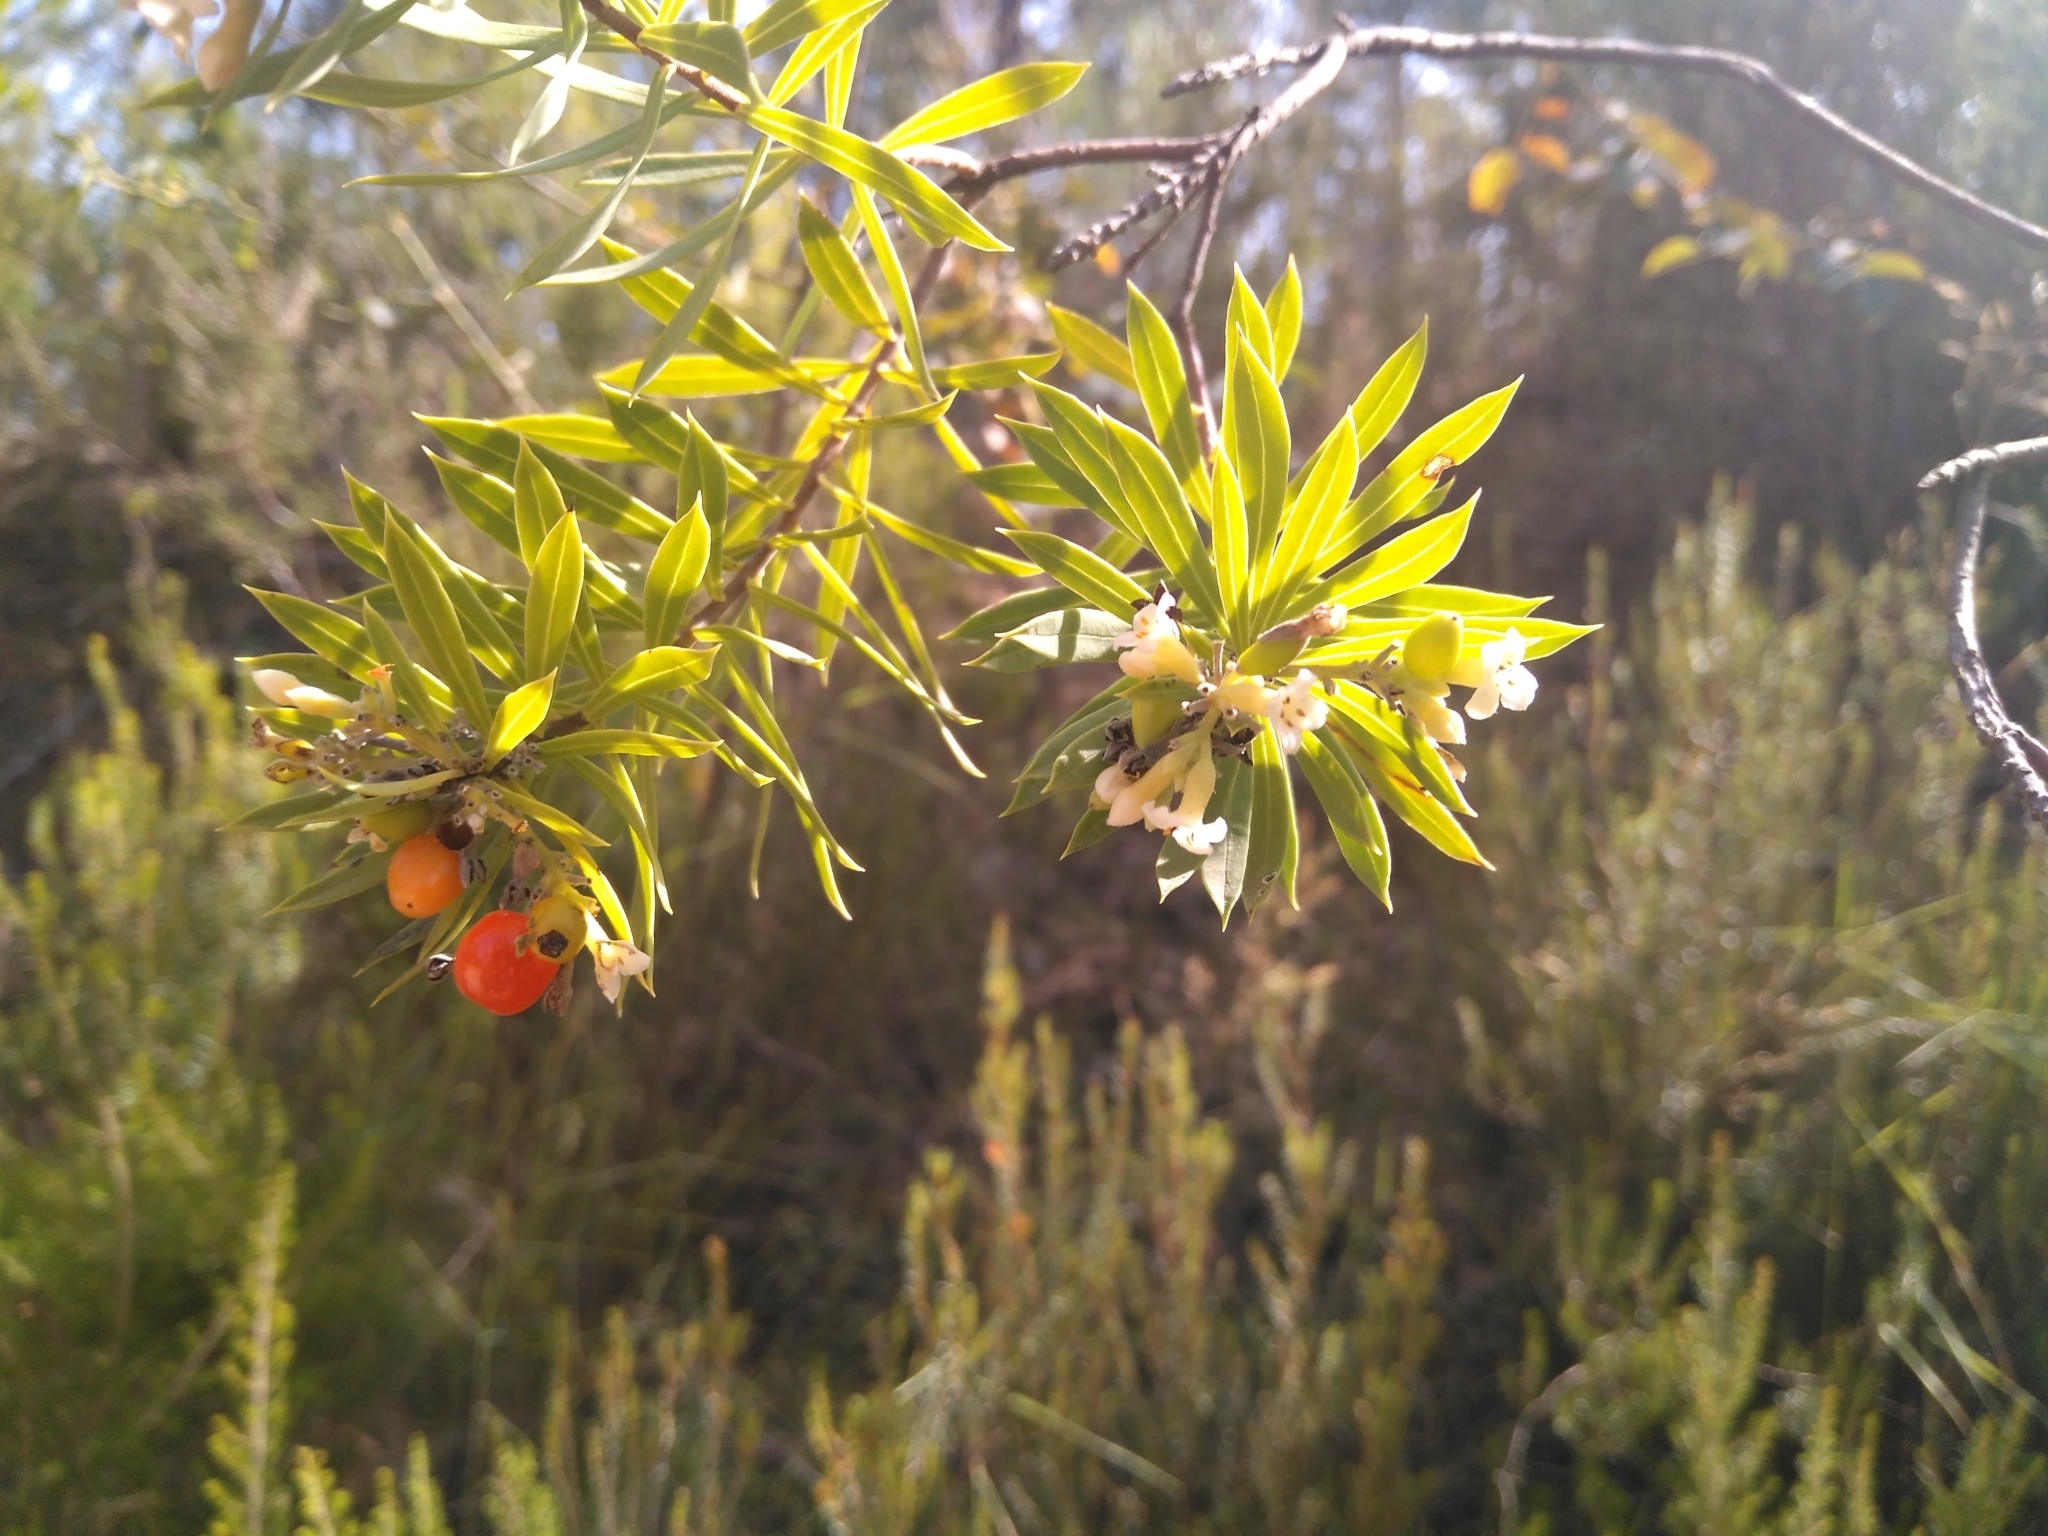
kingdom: Plantae
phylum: Tracheophyta
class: Magnoliopsida
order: Malvales
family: Thymelaeaceae
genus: Daphne
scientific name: Daphne gnidium
